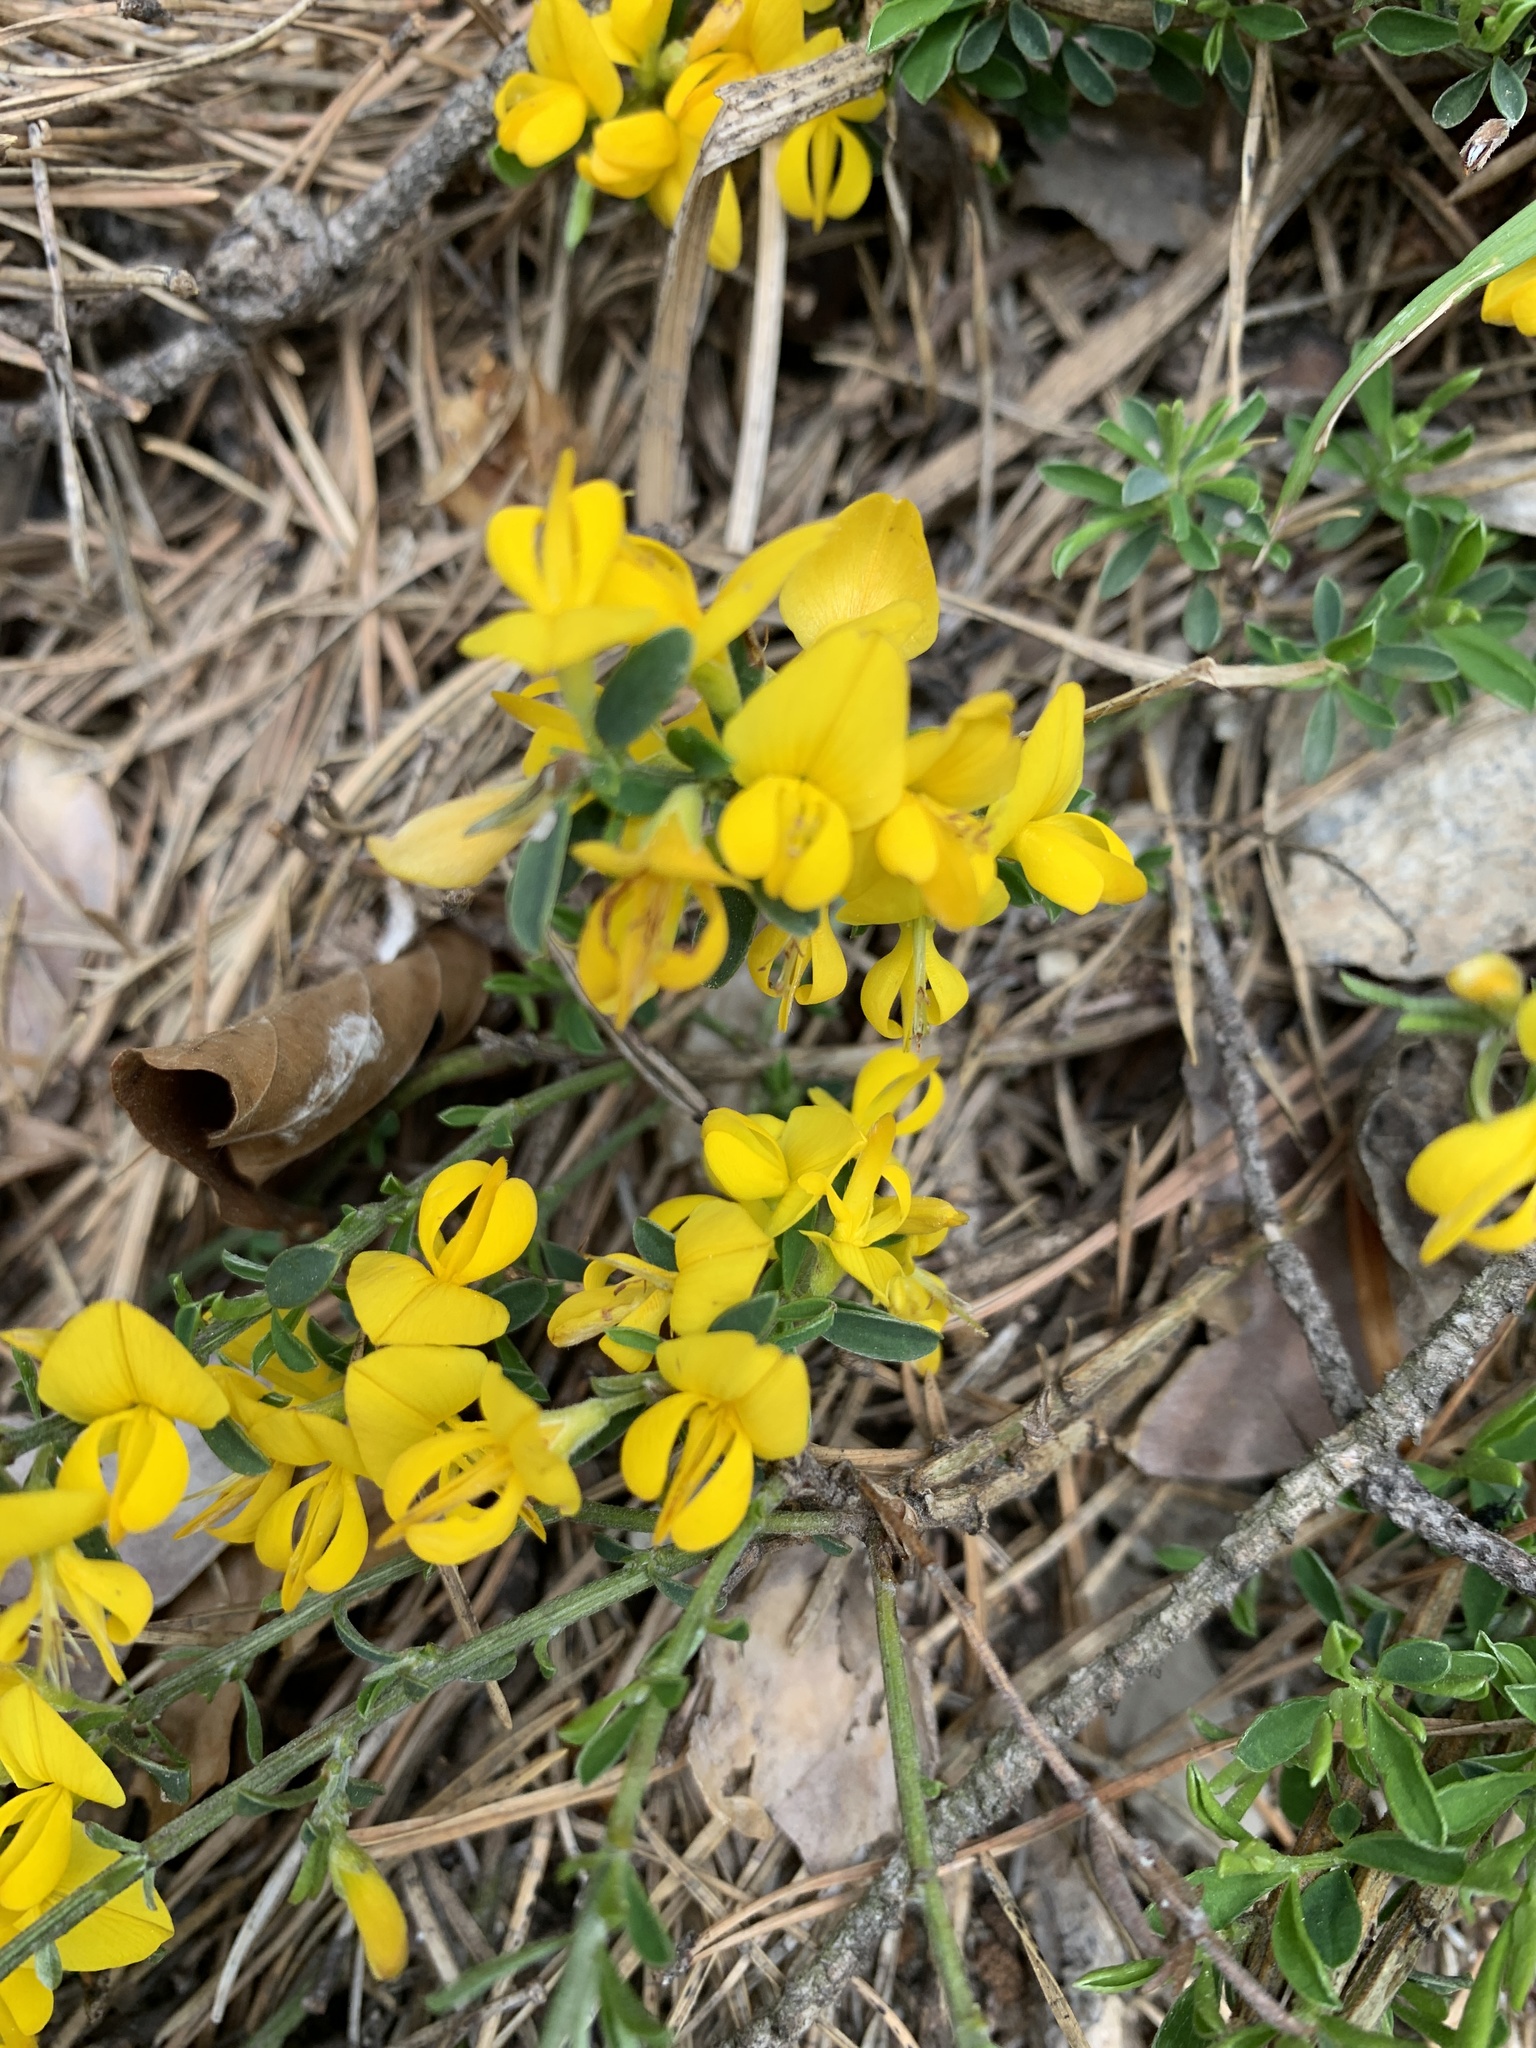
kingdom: Plantae
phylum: Tracheophyta
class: Magnoliopsida
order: Fabales
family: Fabaceae
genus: Genista
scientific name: Genista pilosa
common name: Hairy greenweed
